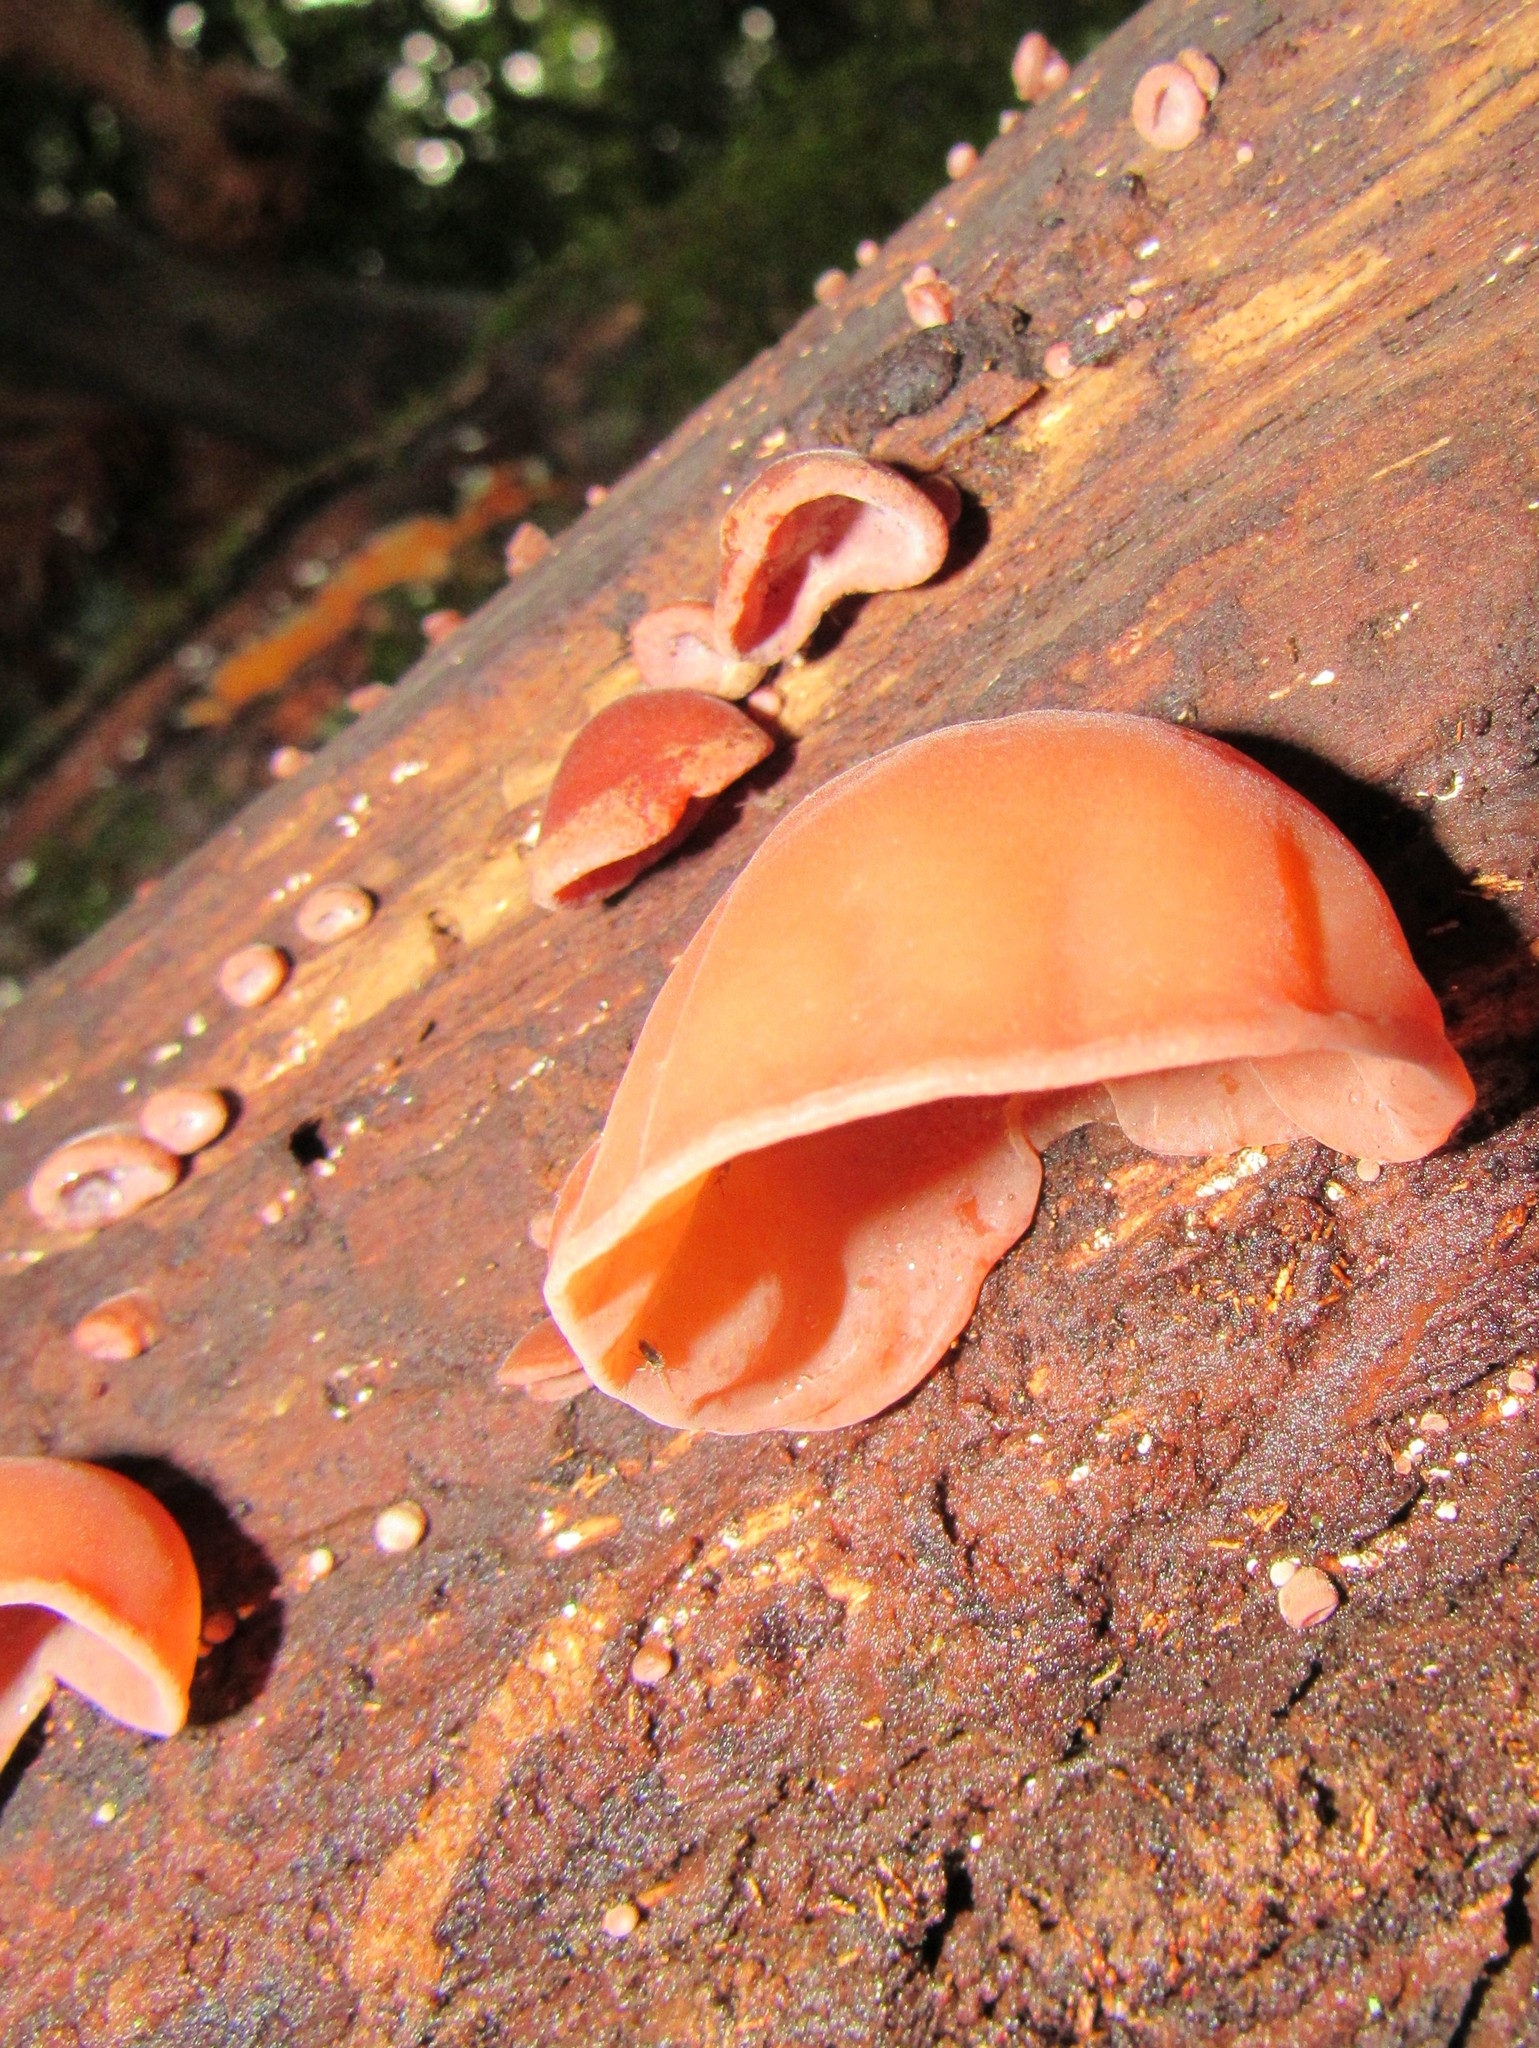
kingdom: Fungi
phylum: Basidiomycota
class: Agaricomycetes
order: Auriculariales
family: Auriculariaceae
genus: Auricularia
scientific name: Auricularia fuscosuccinea
